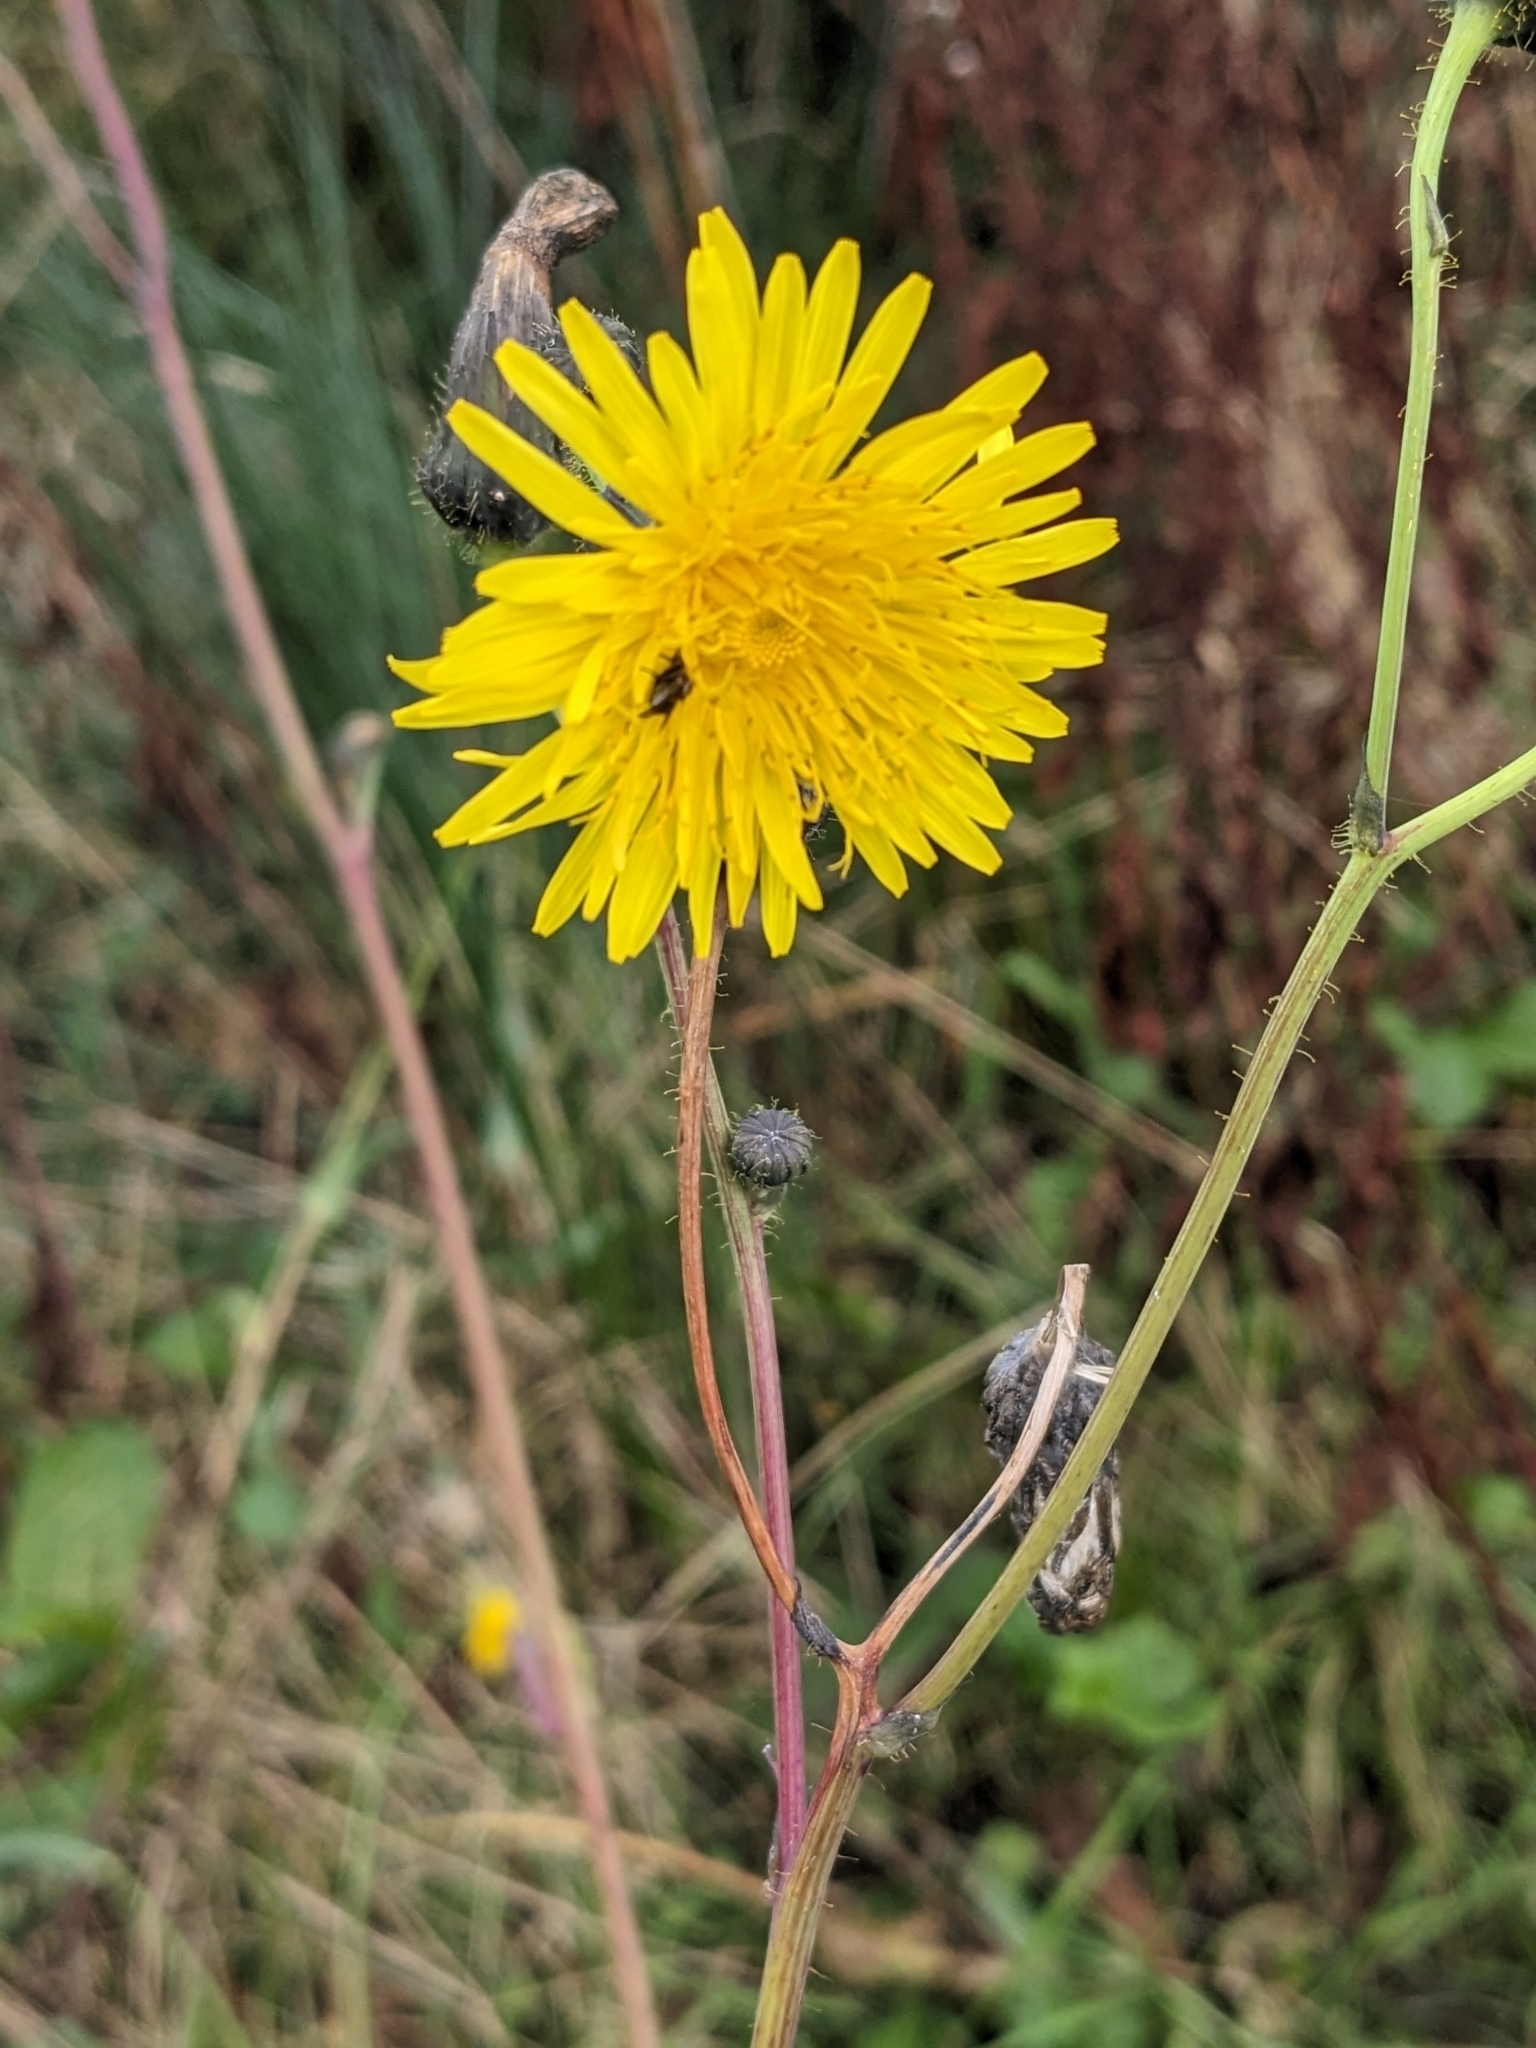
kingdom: Plantae
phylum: Tracheophyta
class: Magnoliopsida
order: Asterales
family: Asteraceae
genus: Sonchus
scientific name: Sonchus arvensis
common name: Perennial sow-thistle
